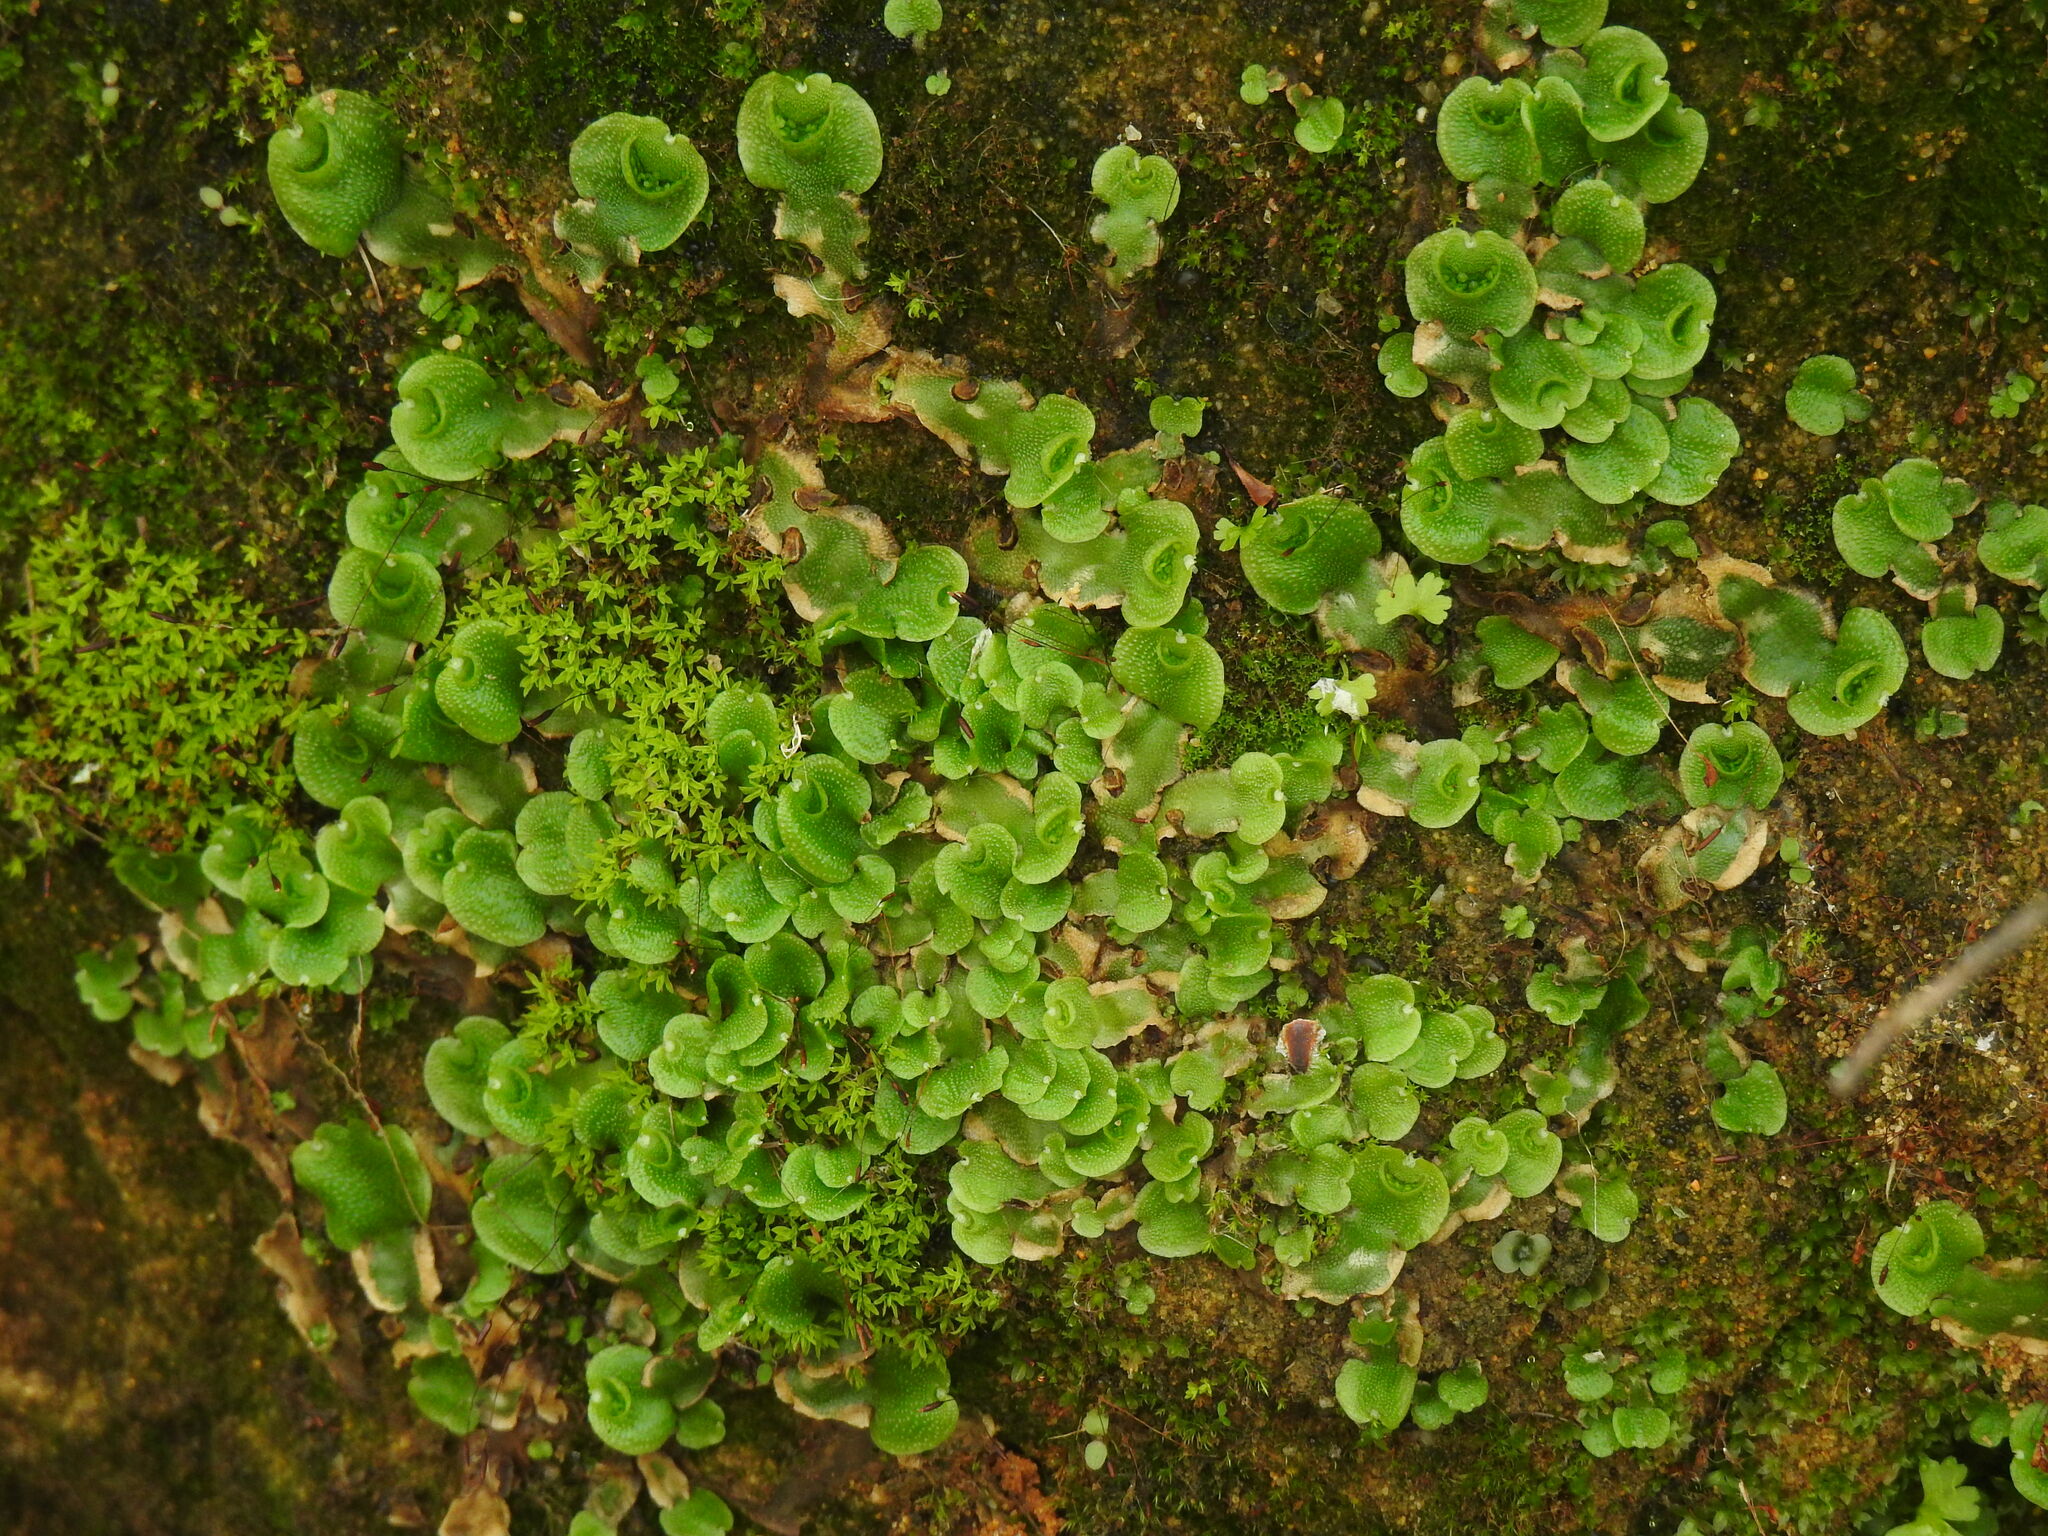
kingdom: Plantae
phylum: Marchantiophyta
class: Marchantiopsida
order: Lunulariales
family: Lunulariaceae
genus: Lunularia
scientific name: Lunularia cruciata
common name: Crescent-cup liverwort
